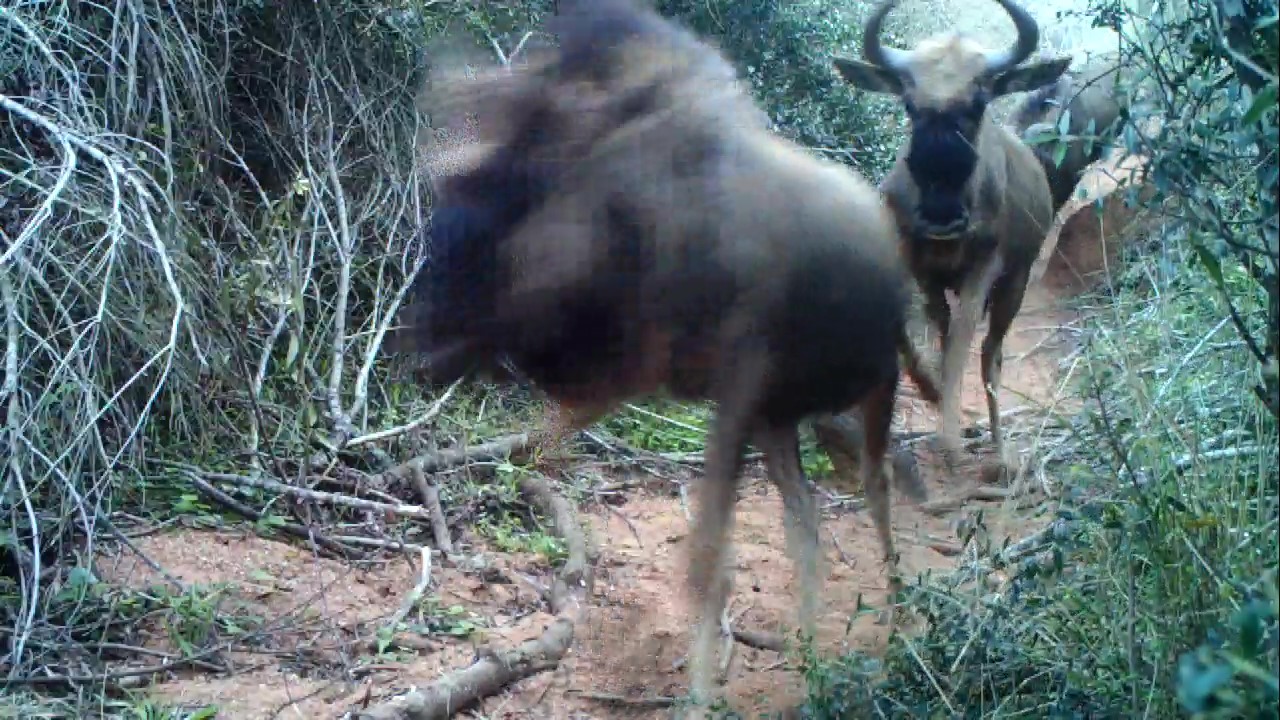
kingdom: Animalia
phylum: Chordata
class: Mammalia
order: Artiodactyla
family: Bovidae
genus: Connochaetes
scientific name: Connochaetes taurinus
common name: Blue wildebeest
